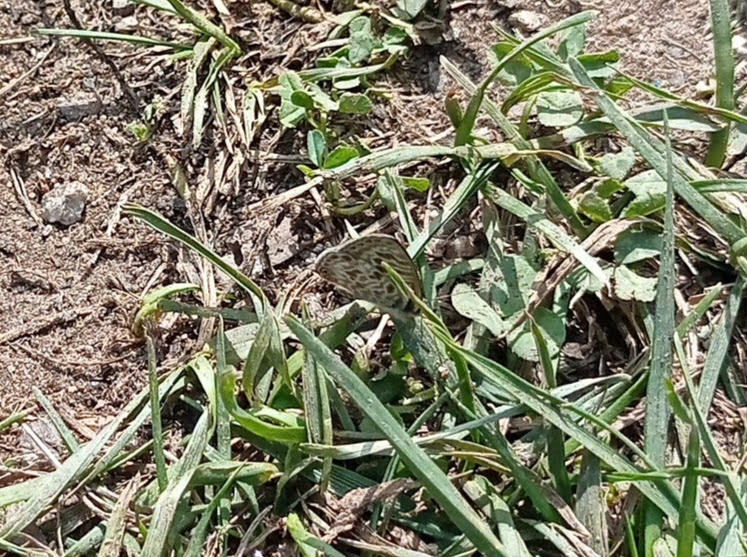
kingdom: Animalia
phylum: Arthropoda
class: Insecta
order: Lepidoptera
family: Lycaenidae
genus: Leptotes
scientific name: Leptotes pirithous
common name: Lang's short-tailed blue
